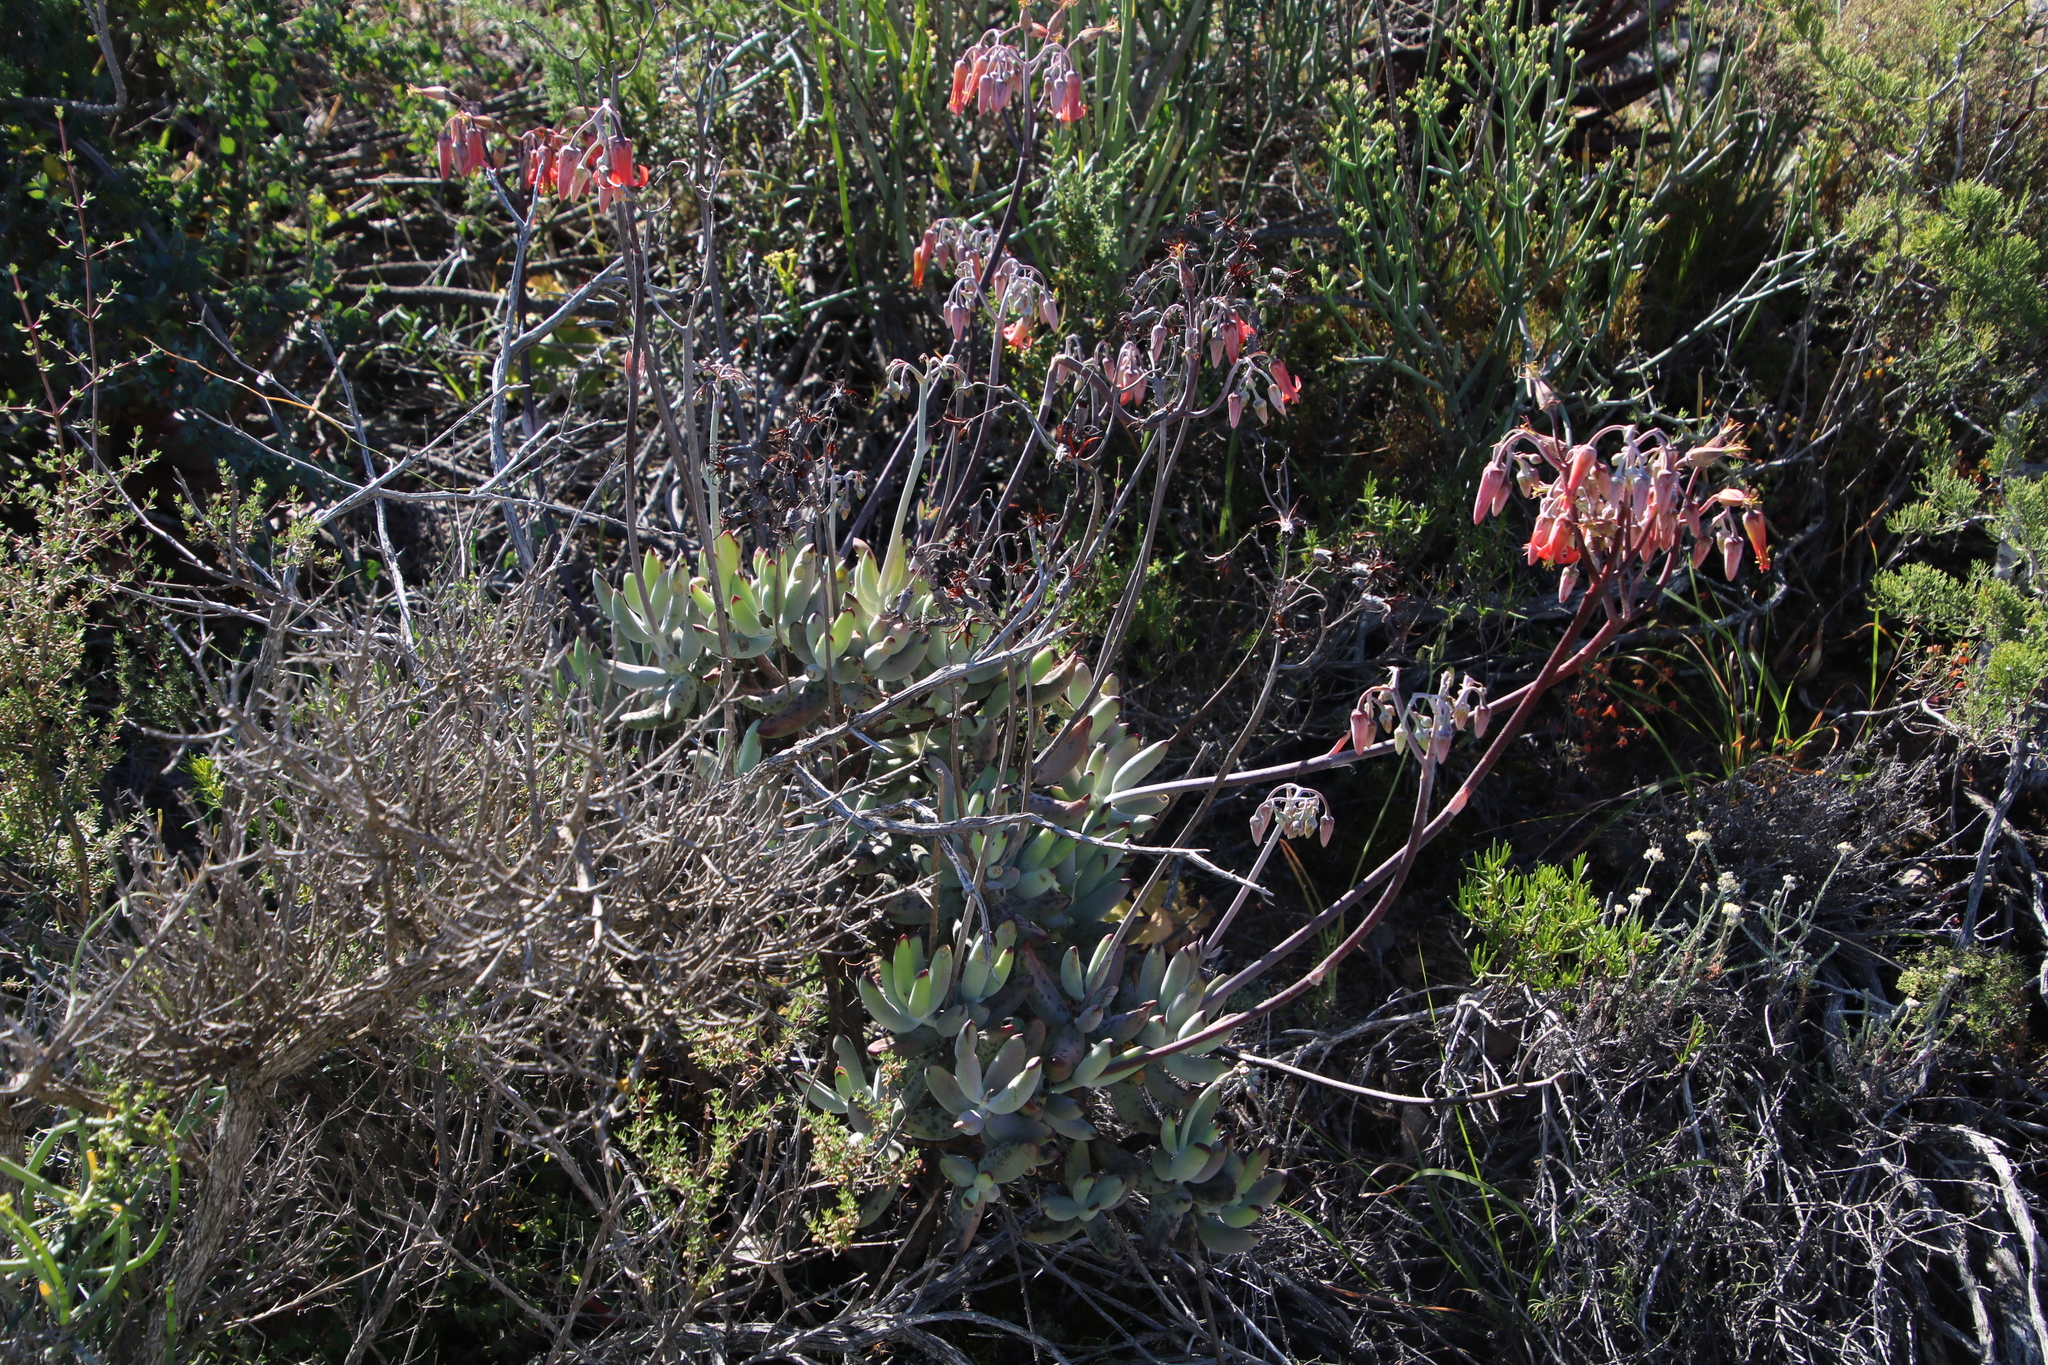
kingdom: Plantae
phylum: Tracheophyta
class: Magnoliopsida
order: Saxifragales
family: Crassulaceae
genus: Cotyledon
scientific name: Cotyledon orbiculata
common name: Pig's ear
